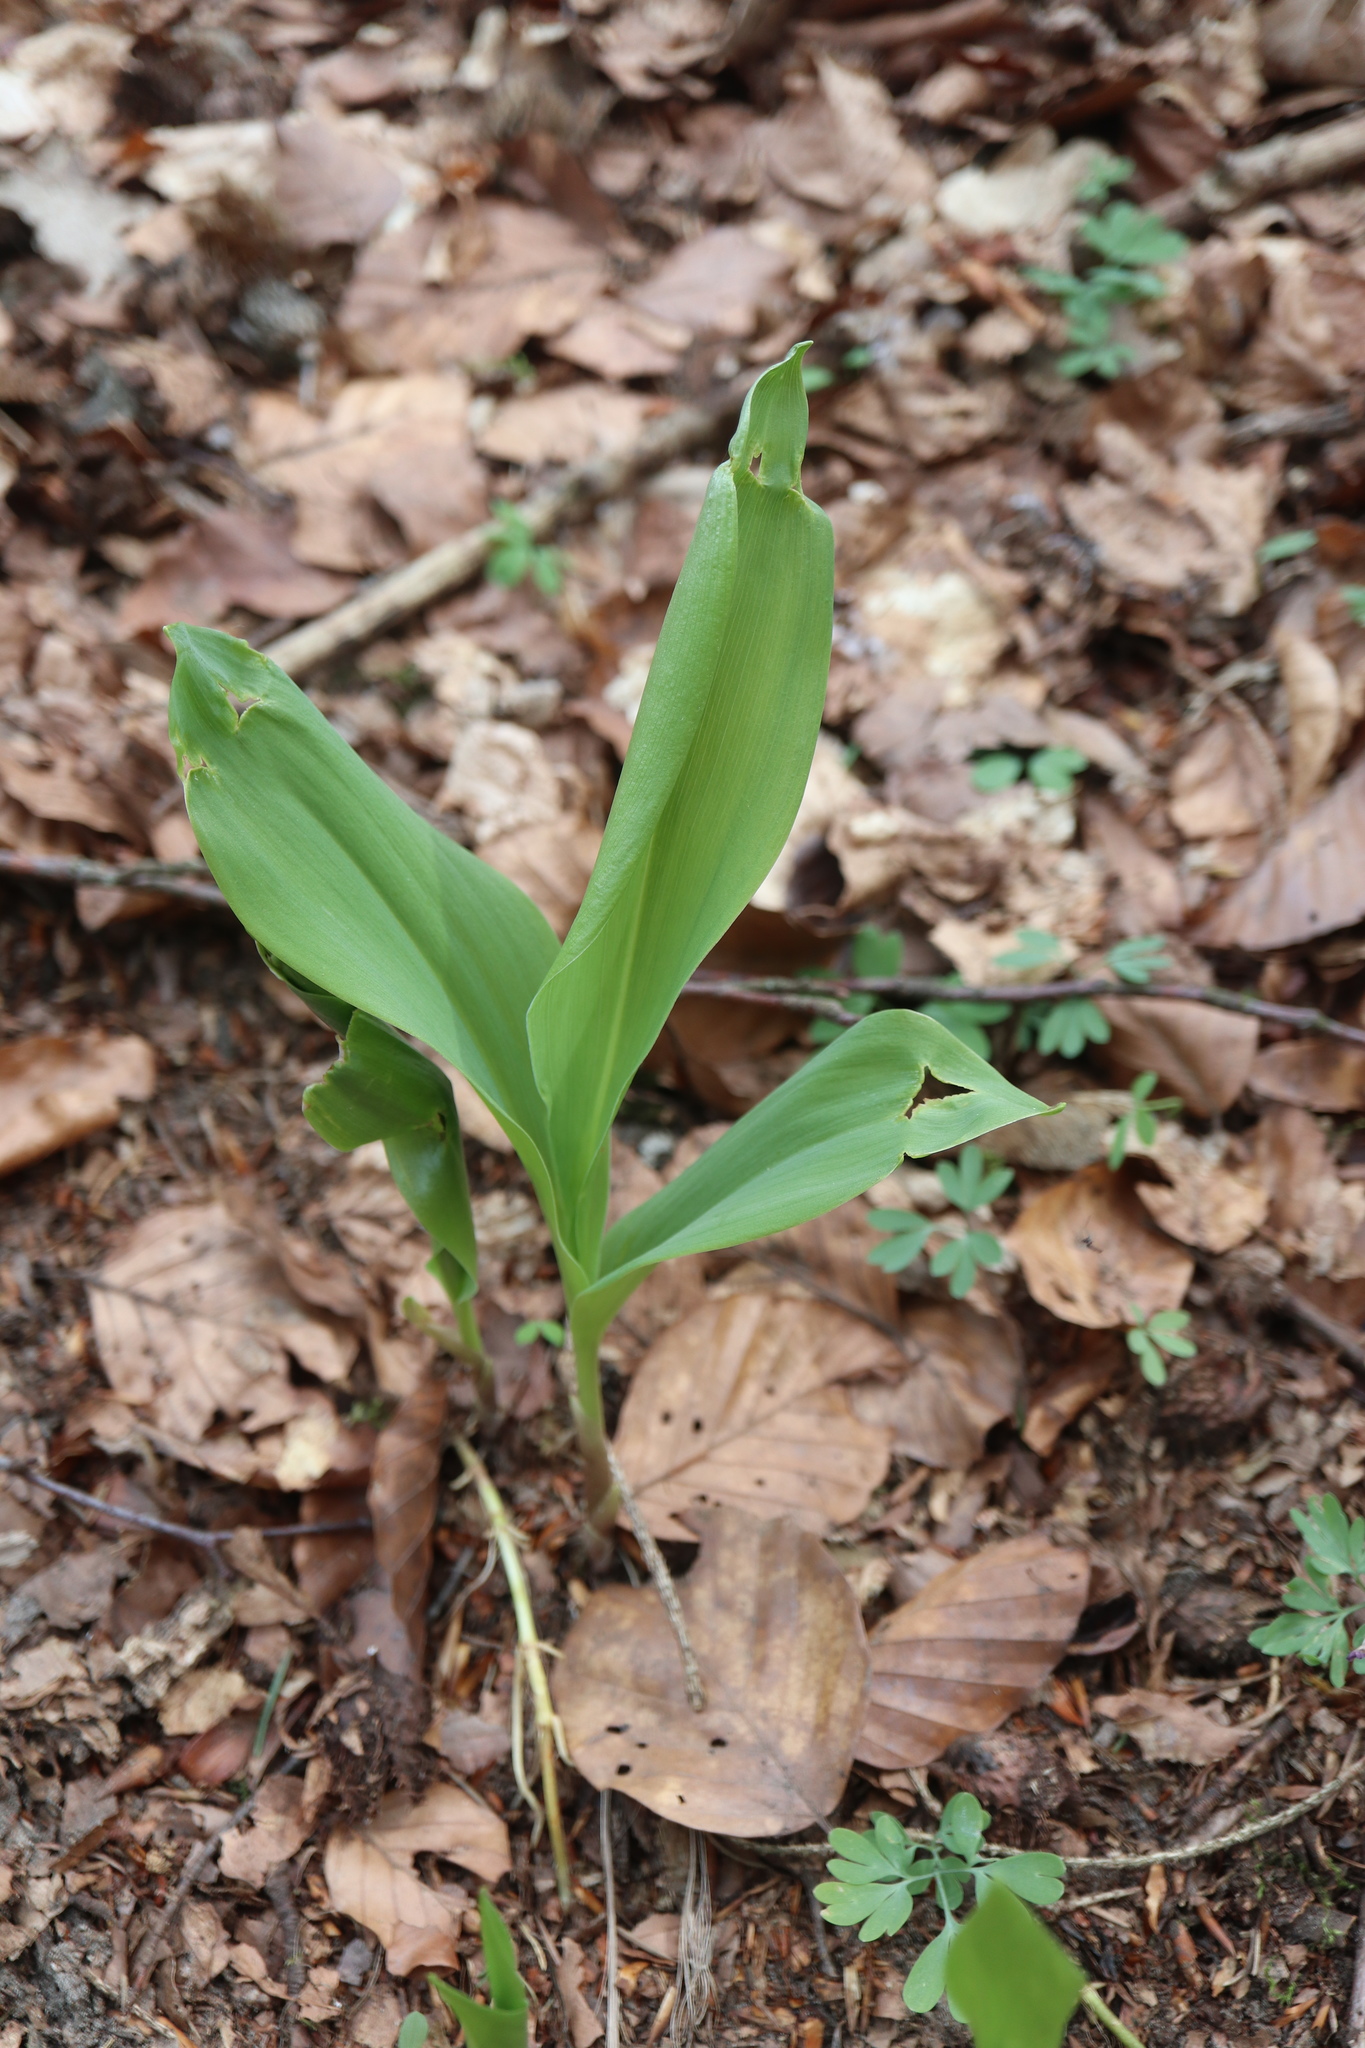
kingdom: Plantae
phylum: Tracheophyta
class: Liliopsida
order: Asparagales
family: Asparagaceae
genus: Convallaria
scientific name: Convallaria majalis
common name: Lily-of-the-valley
